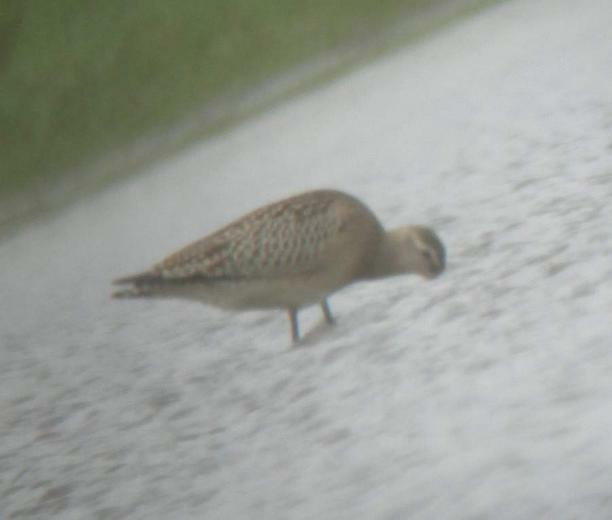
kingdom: Animalia
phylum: Chordata
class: Aves
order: Charadriiformes
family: Scolopacidae
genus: Limosa
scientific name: Limosa lapponica
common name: Bar-tailed godwit
